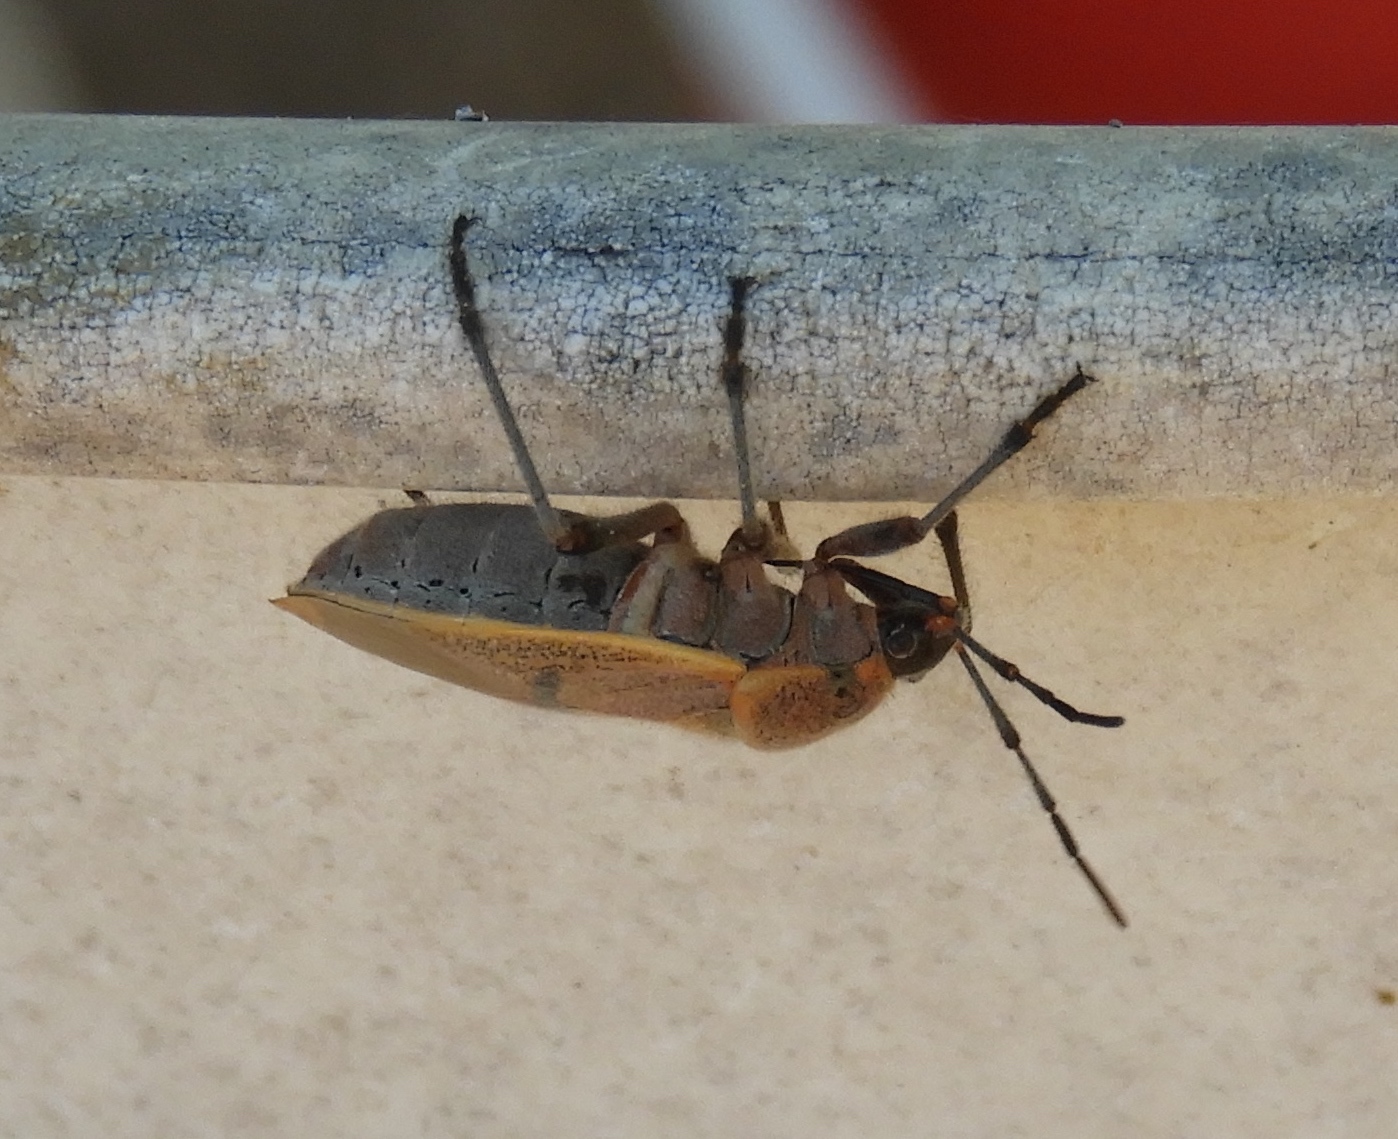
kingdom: Animalia
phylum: Arthropoda
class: Insecta
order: Hemiptera
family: Largidae
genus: Largus
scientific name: Largus
